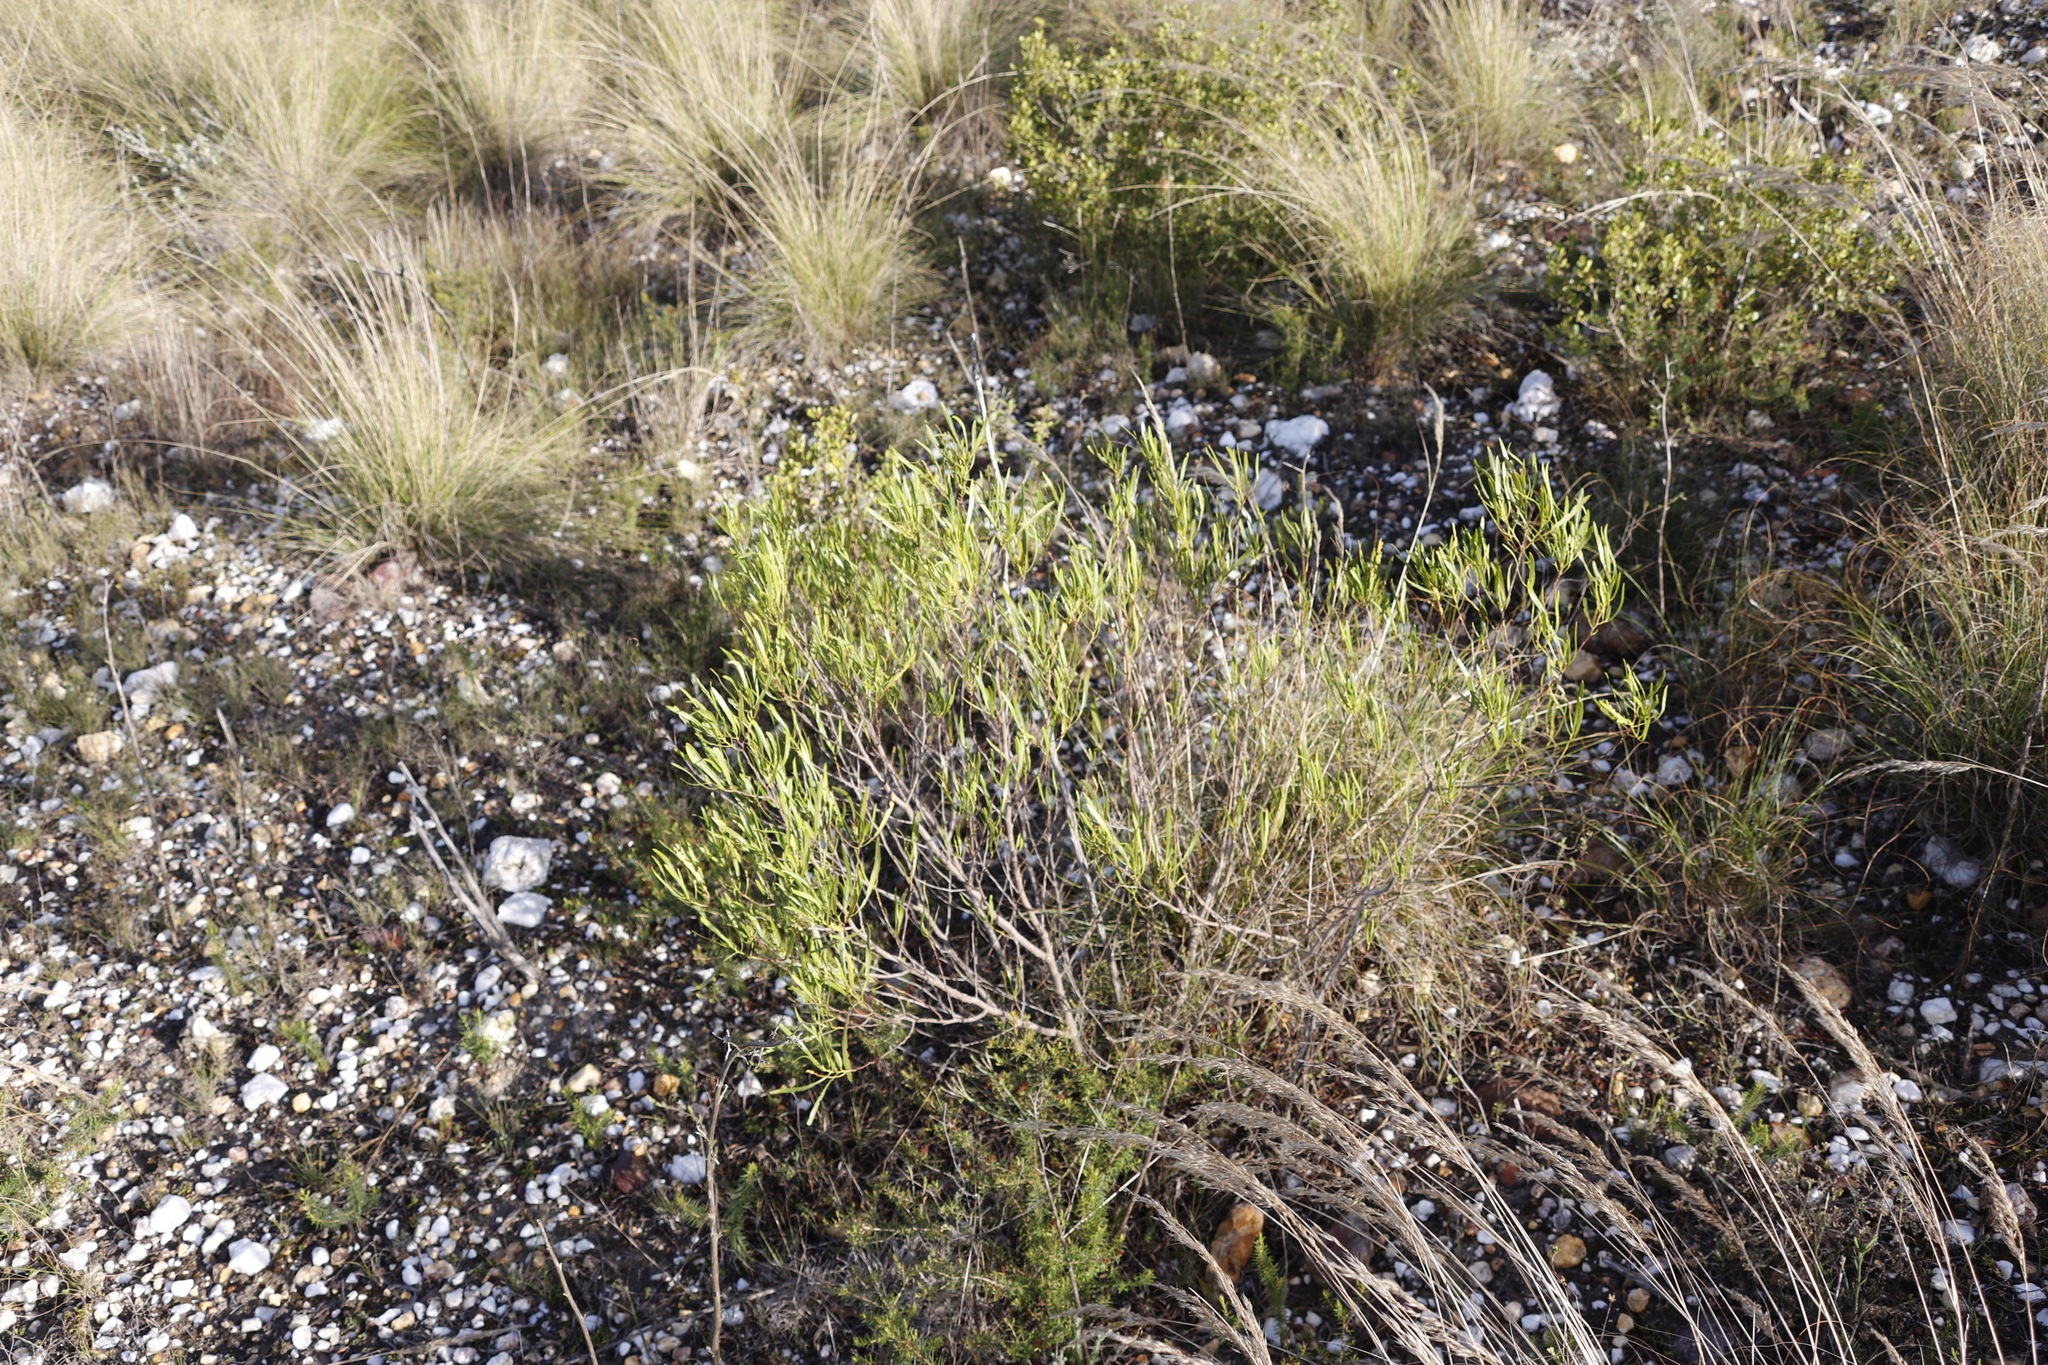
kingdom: Plantae
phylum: Tracheophyta
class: Magnoliopsida
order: Sapindales
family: Sapindaceae
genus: Dodonaea
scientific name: Dodonaea viscosa
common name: Hopbush
